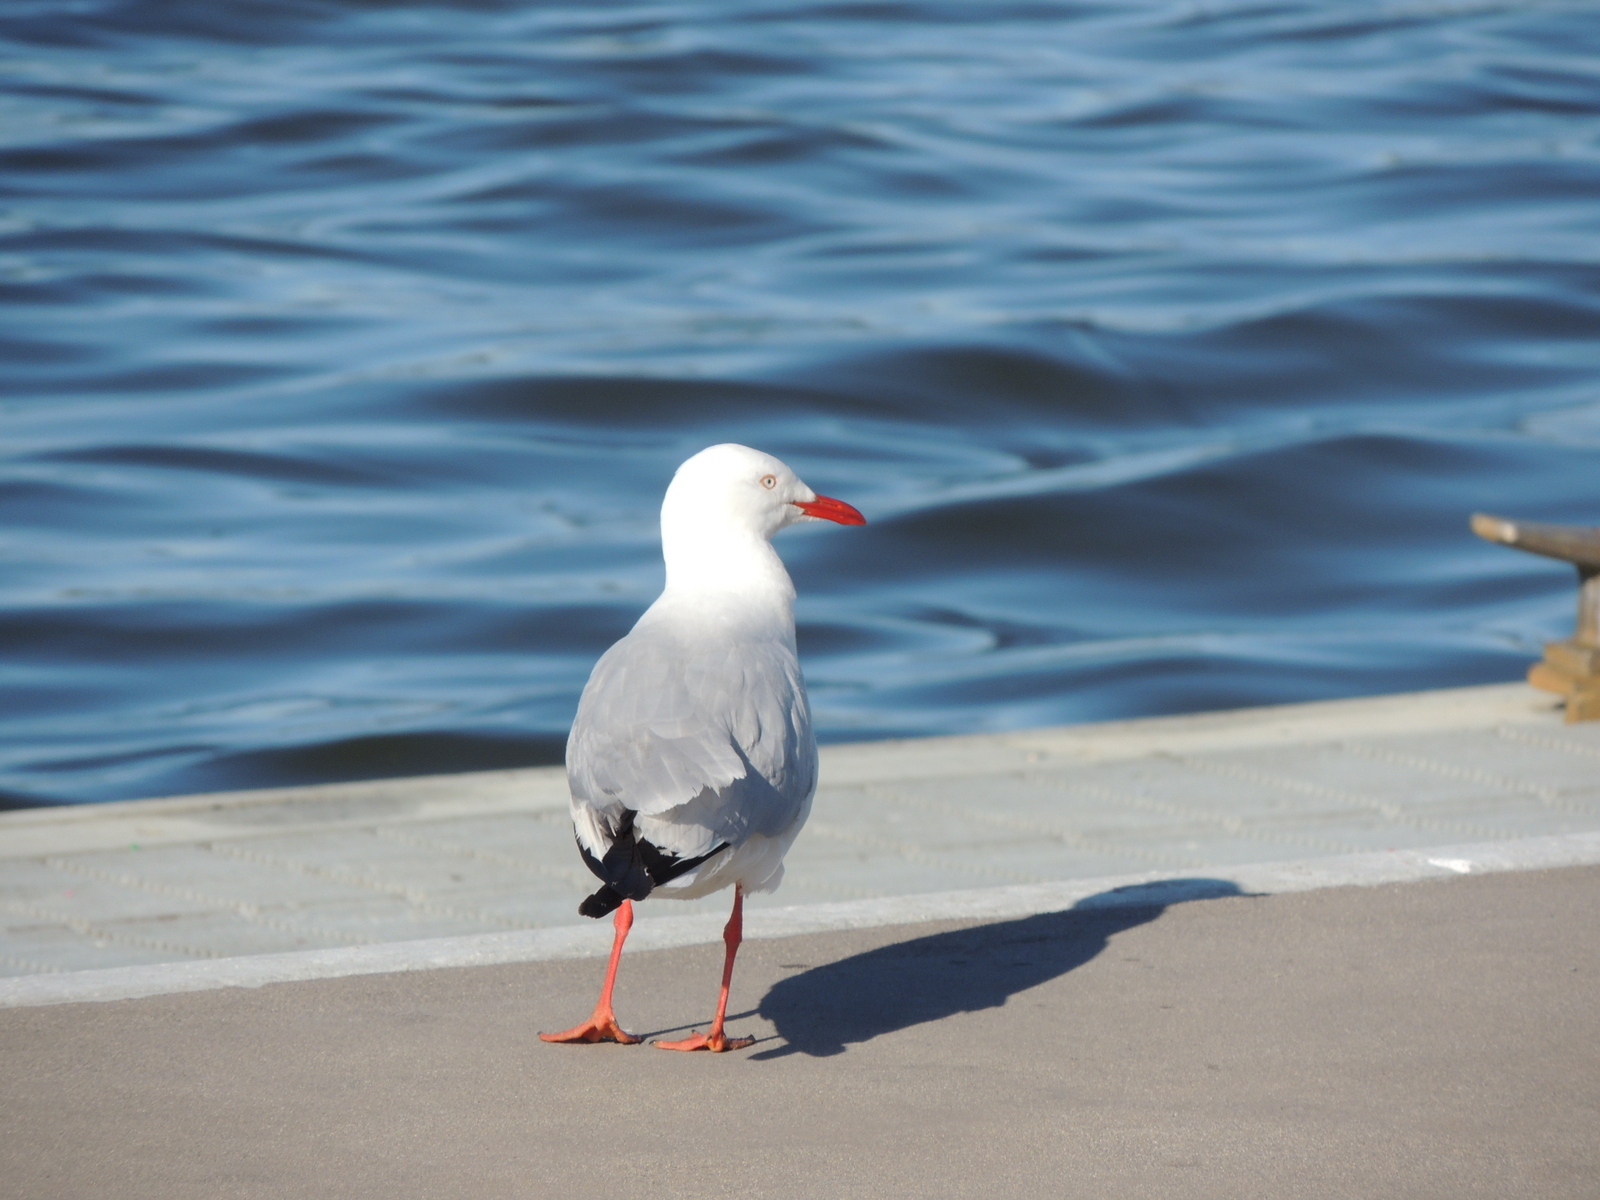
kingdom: Animalia
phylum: Chordata
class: Aves
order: Charadriiformes
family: Laridae
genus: Chroicocephalus
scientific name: Chroicocephalus novaehollandiae
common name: Silver gull
